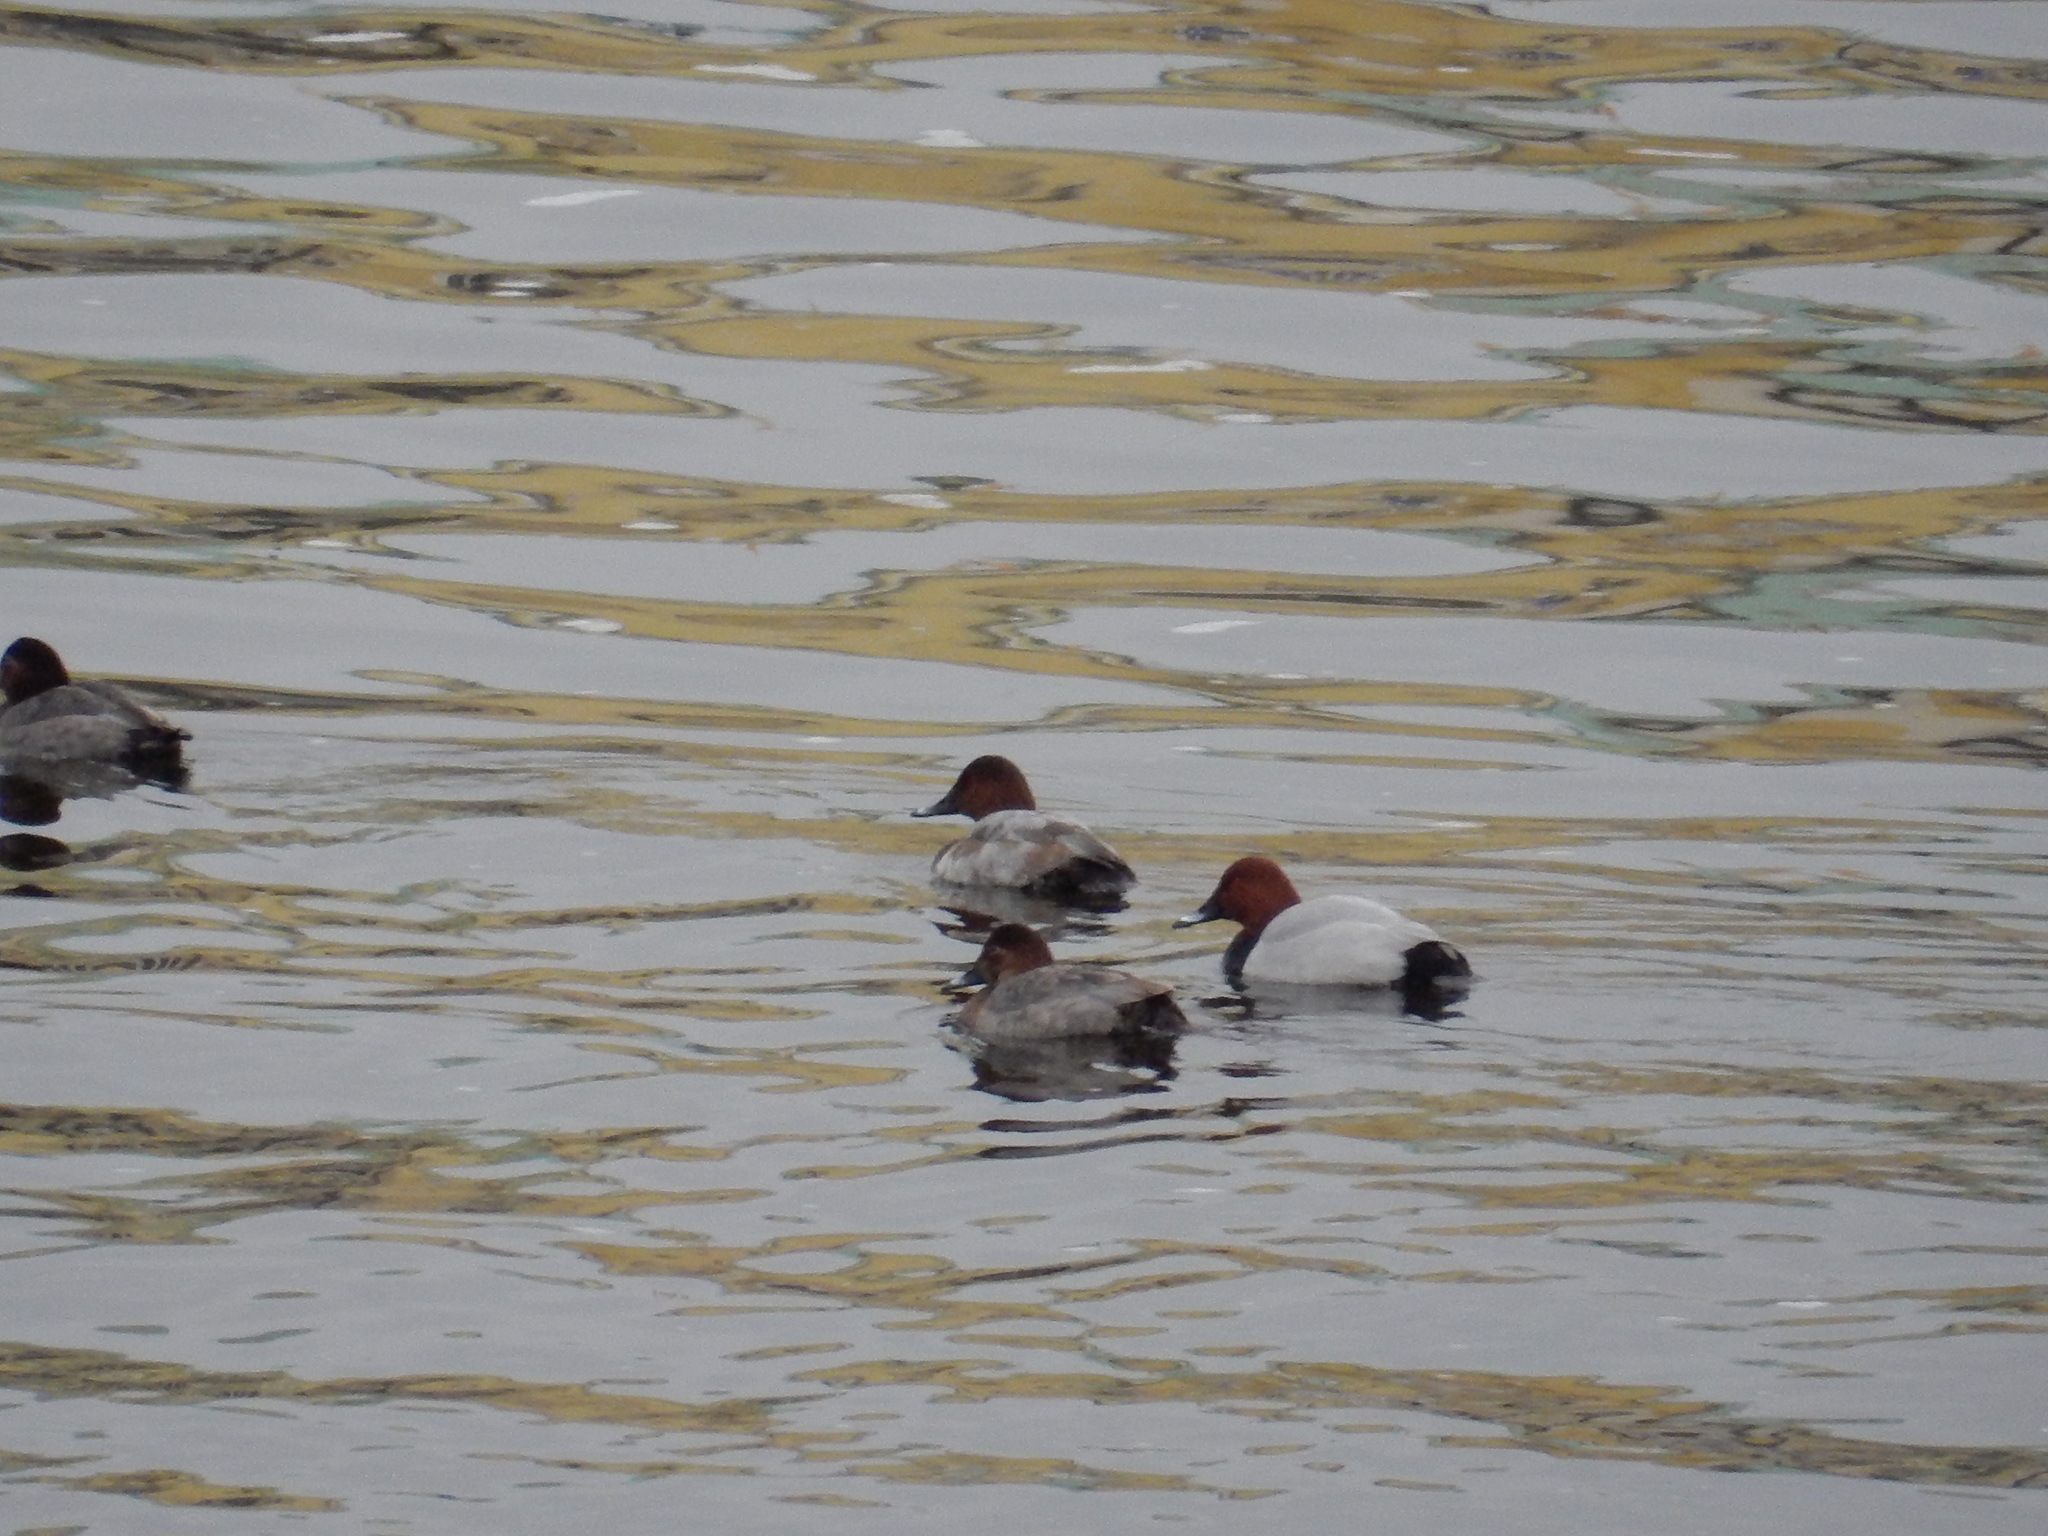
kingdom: Animalia
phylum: Chordata
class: Aves
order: Anseriformes
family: Anatidae
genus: Aythya
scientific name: Aythya ferina
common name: Common pochard
